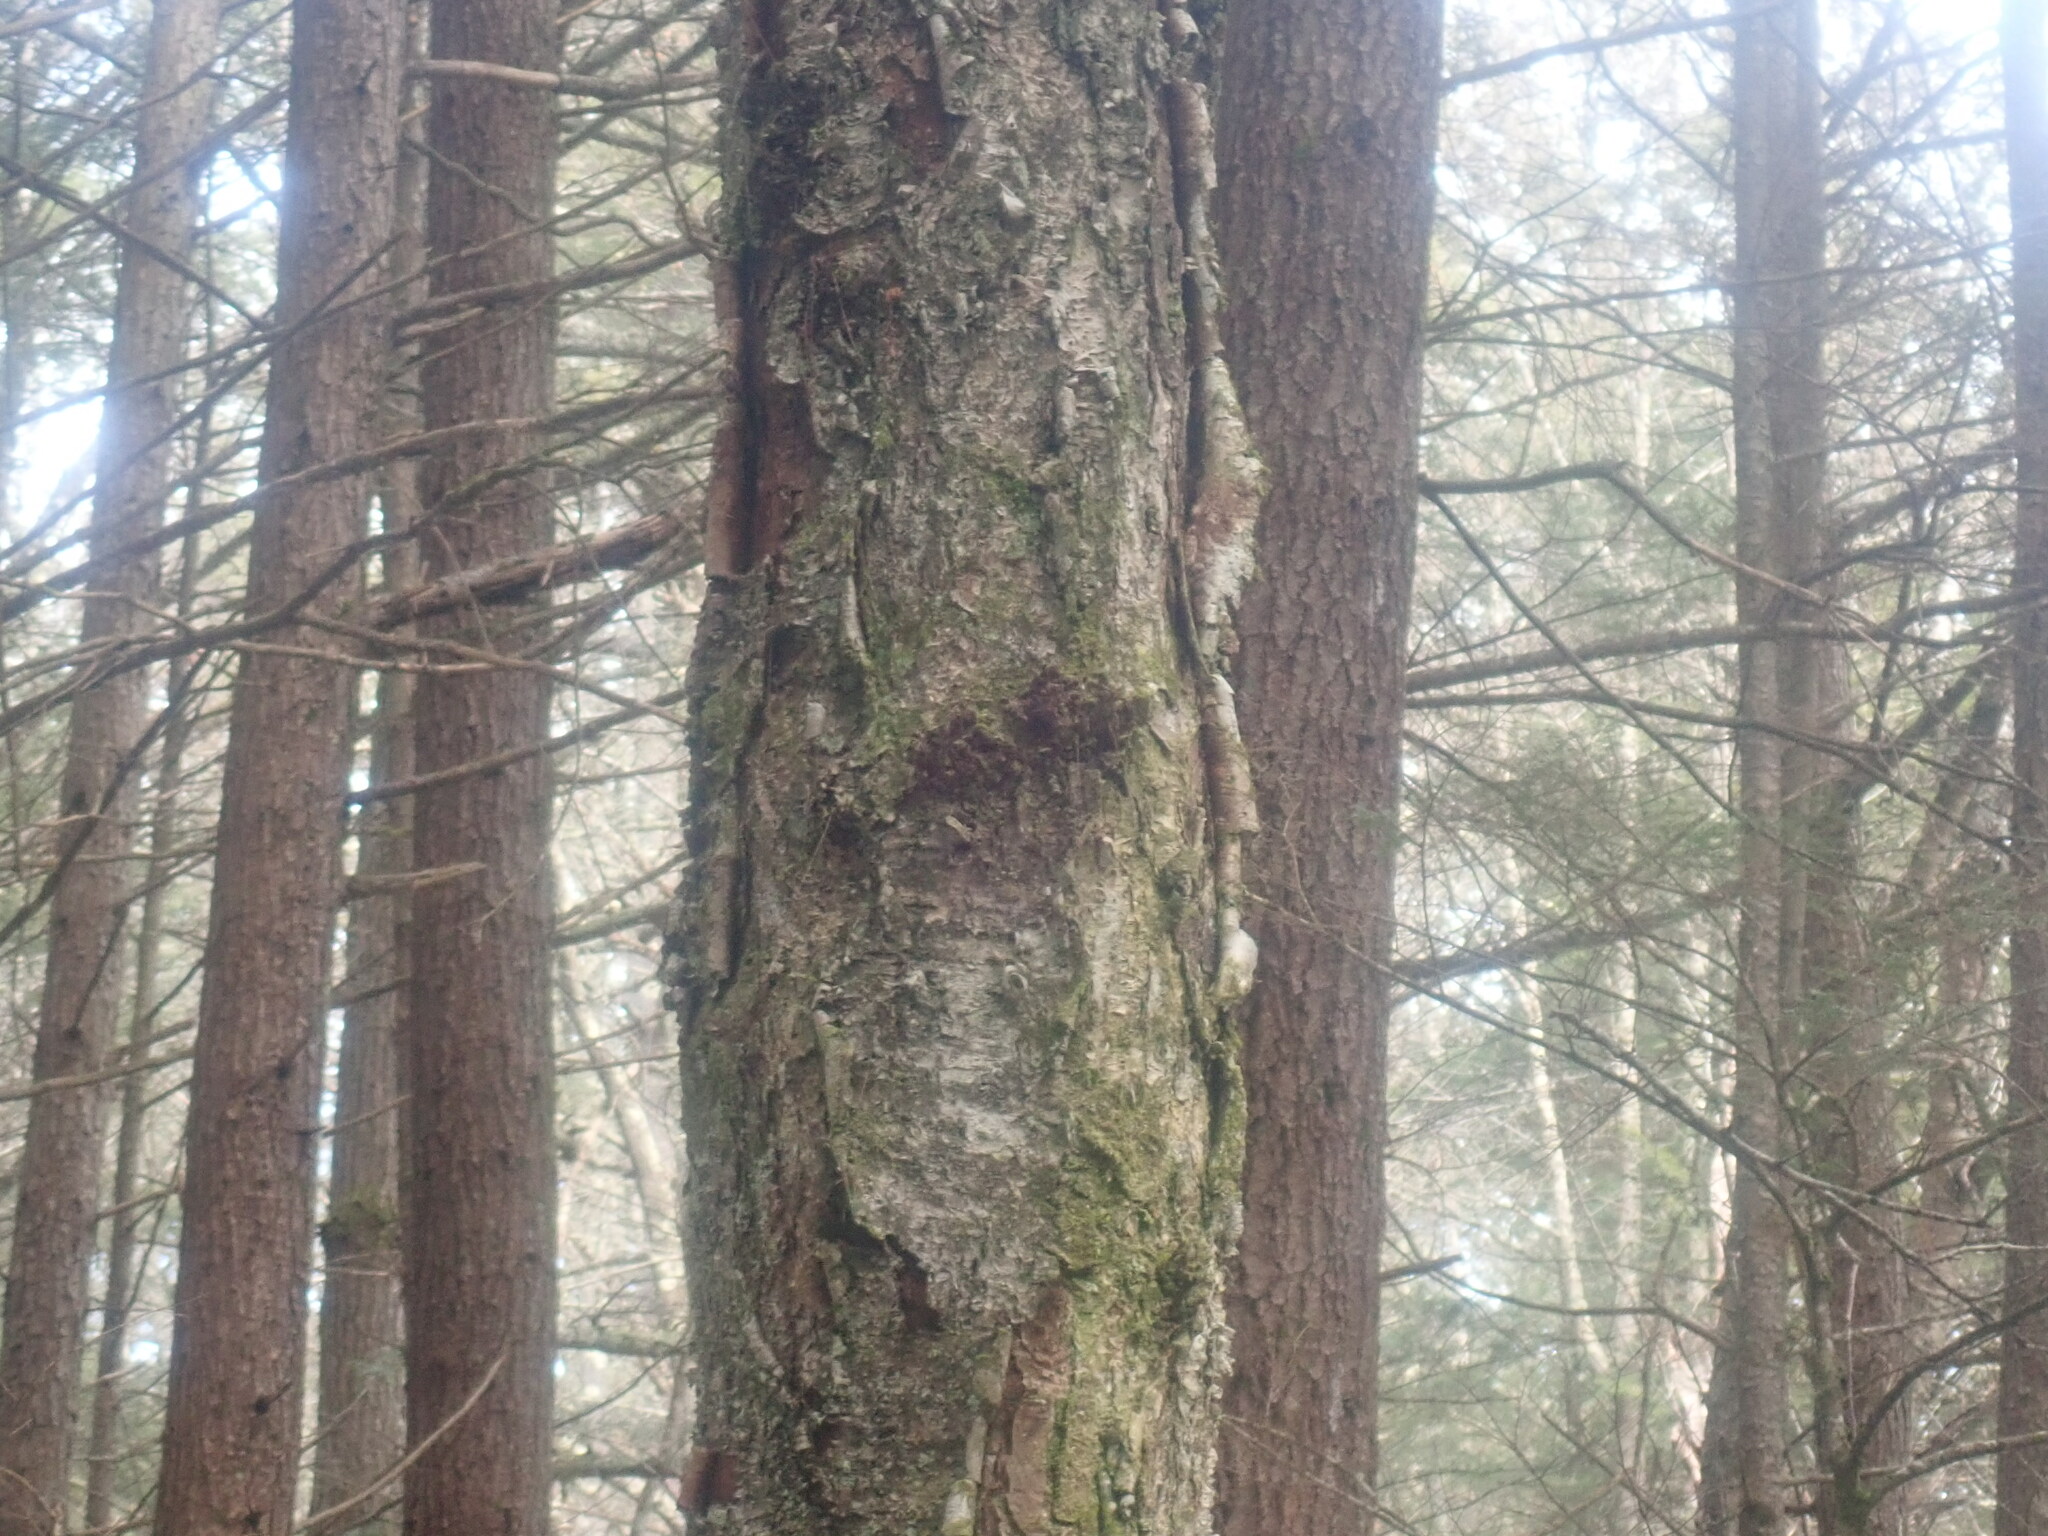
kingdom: Plantae
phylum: Tracheophyta
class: Magnoliopsida
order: Fagales
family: Betulaceae
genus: Betula
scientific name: Betula alleghaniensis
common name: Yellow birch
